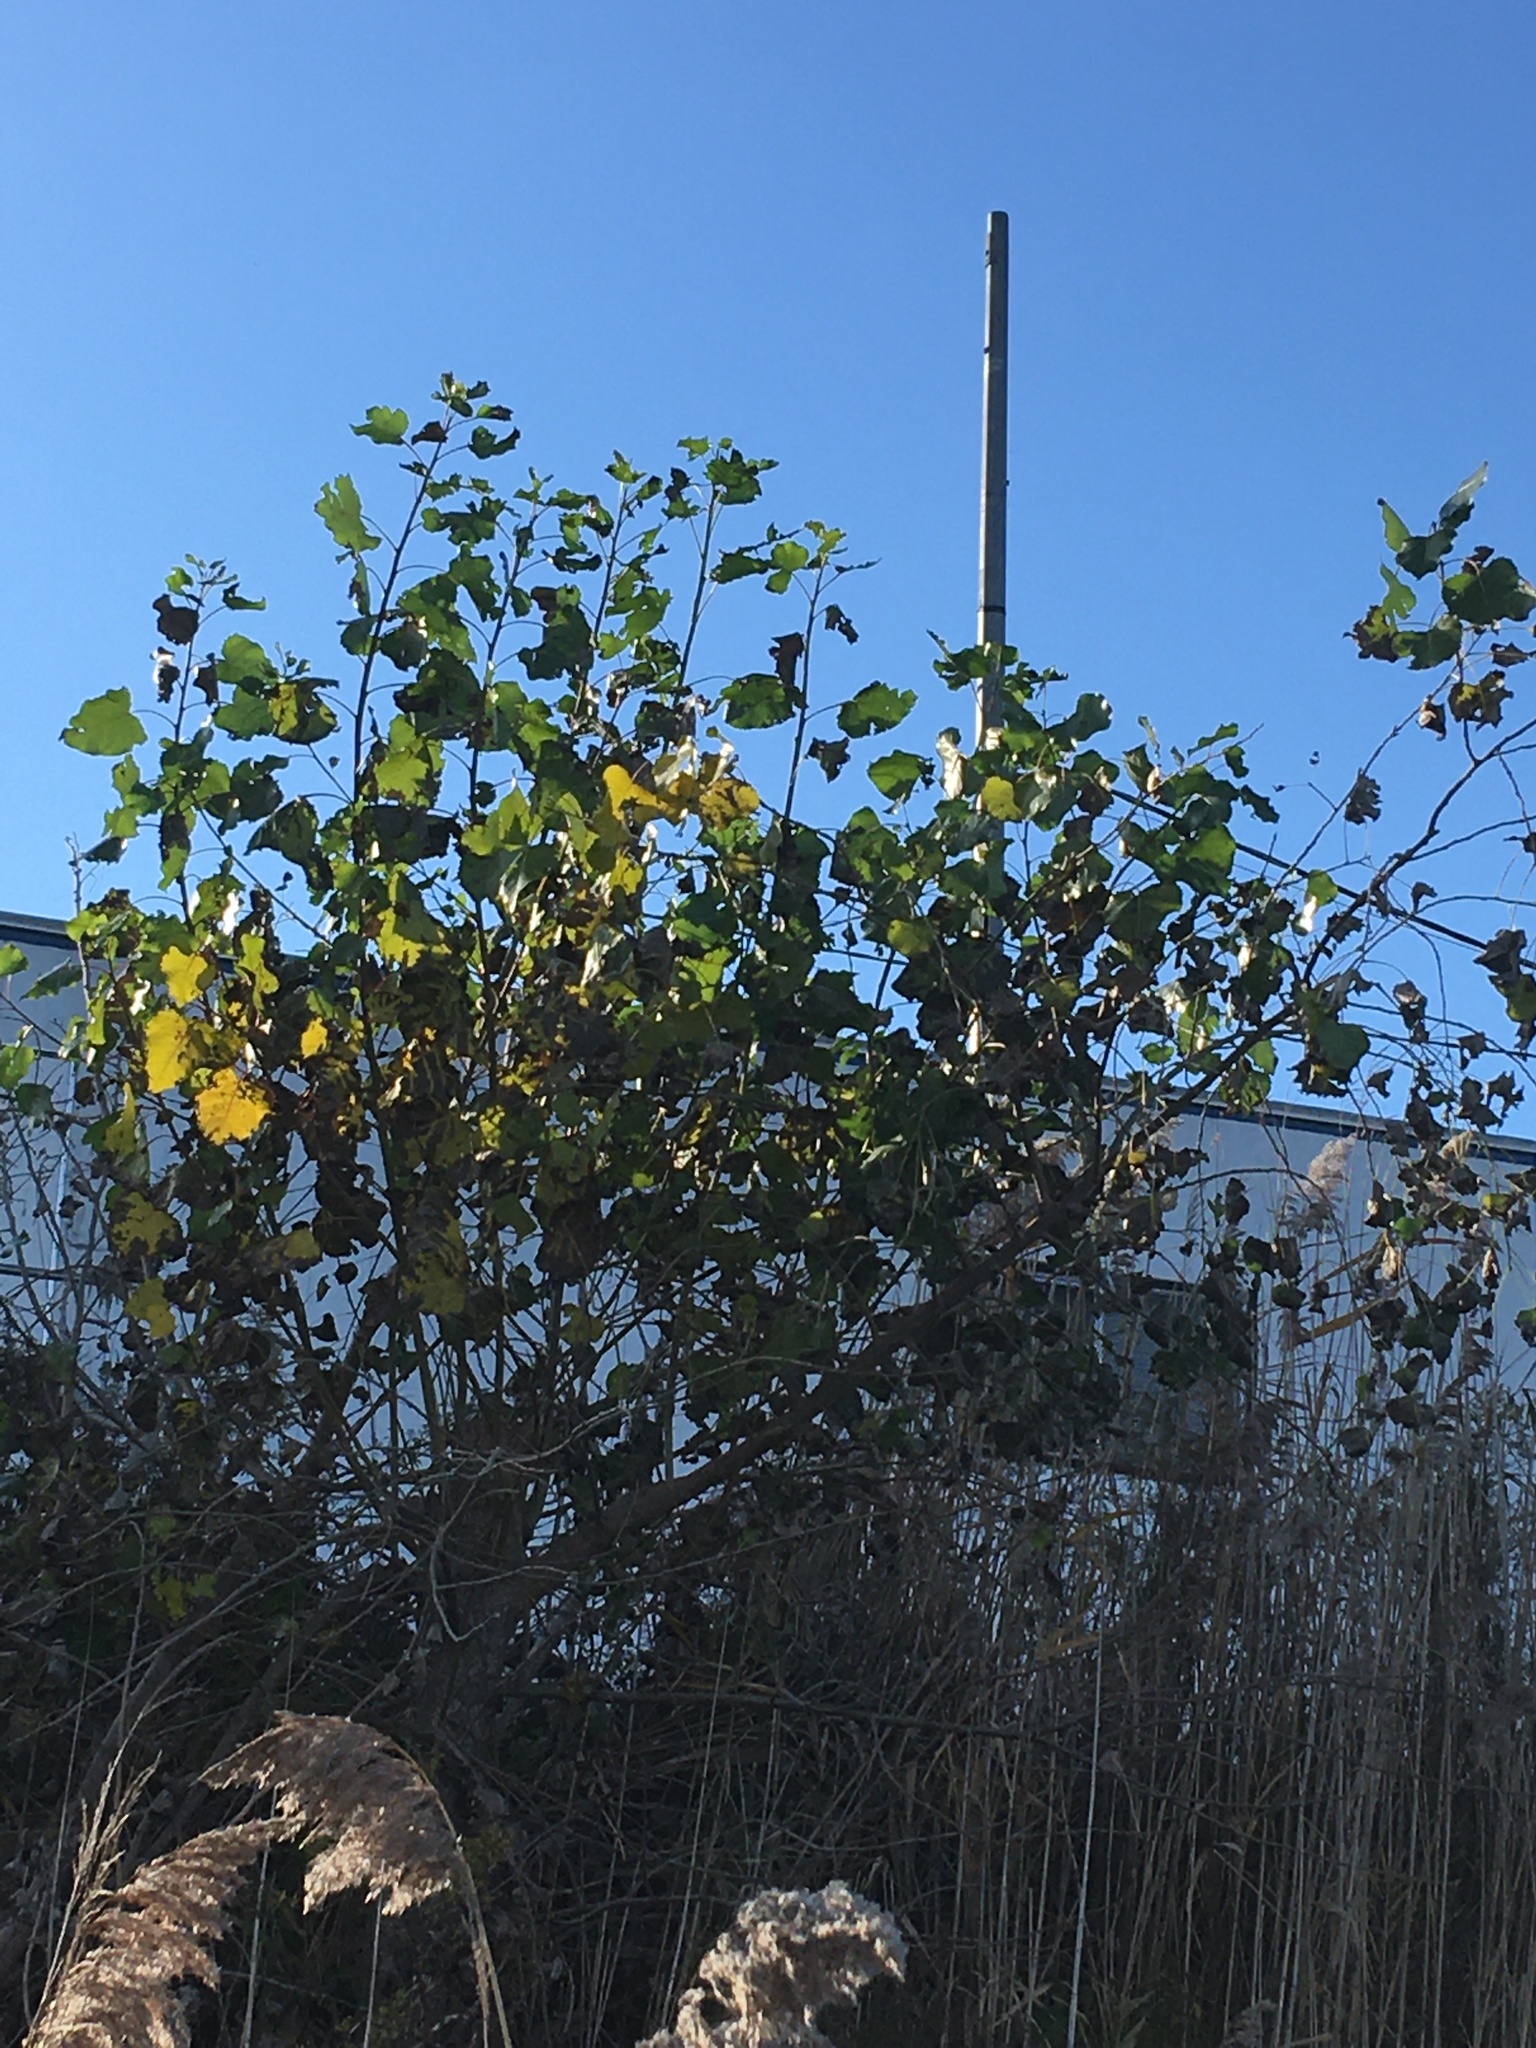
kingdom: Plantae
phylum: Tracheophyta
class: Magnoliopsida
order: Malpighiales
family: Salicaceae
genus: Populus
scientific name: Populus deltoides
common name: Eastern cottonwood
